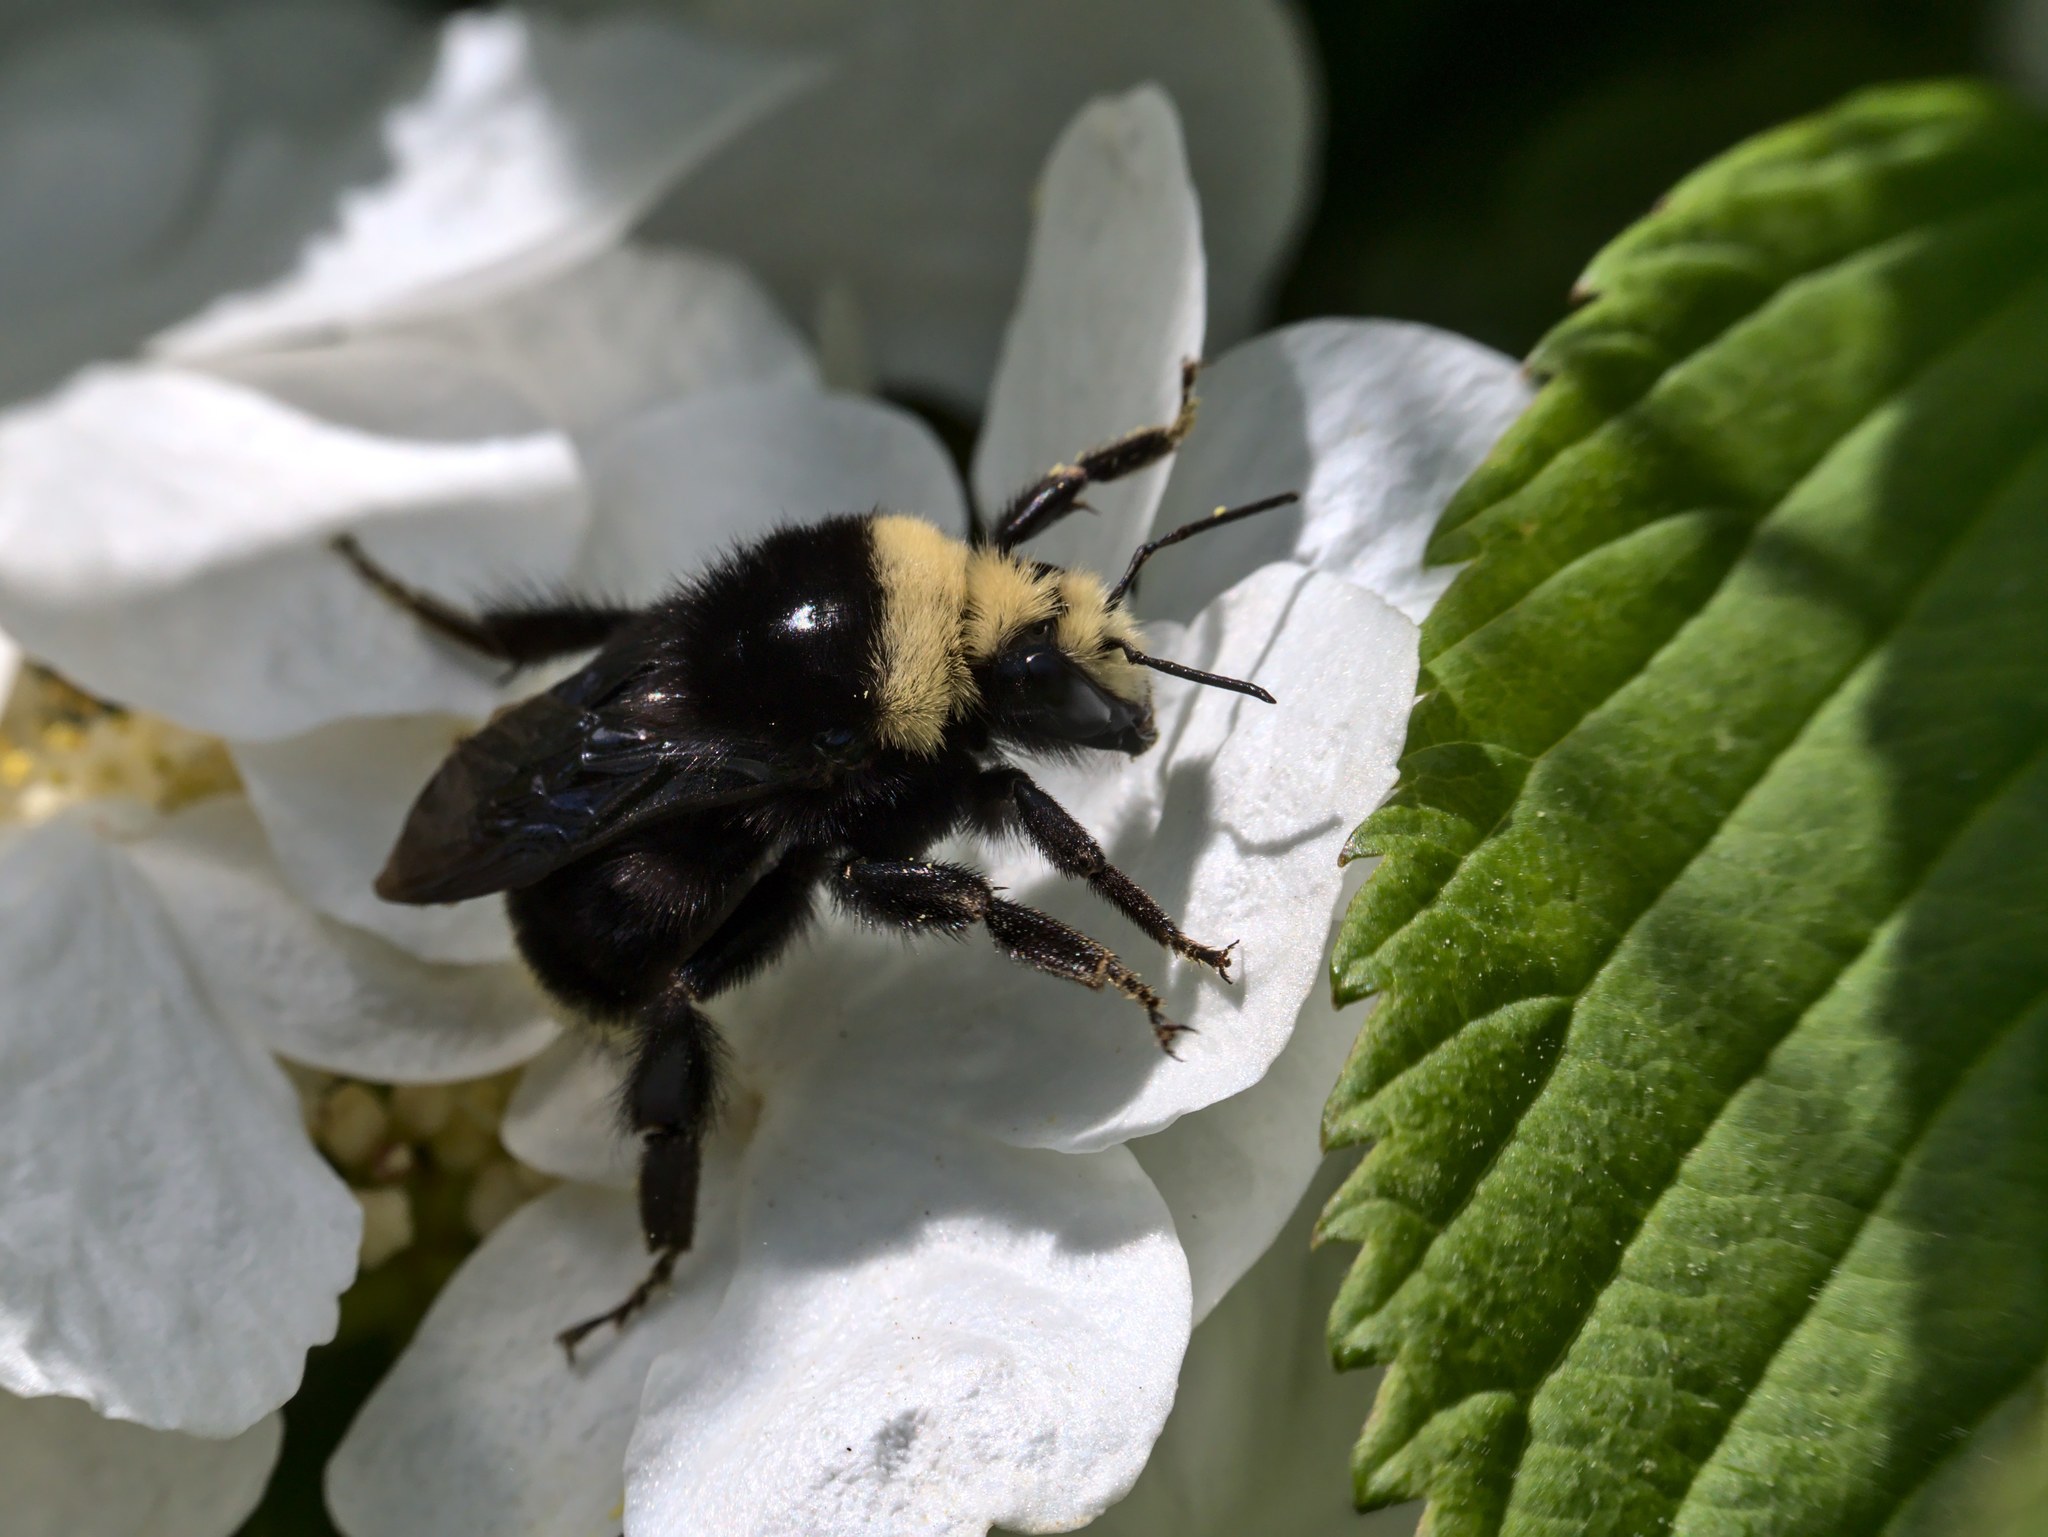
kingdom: Animalia
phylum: Arthropoda
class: Insecta
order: Hymenoptera
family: Apidae
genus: Bombus
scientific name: Bombus vosnesenskii
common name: Vosnesensky bumble bee
